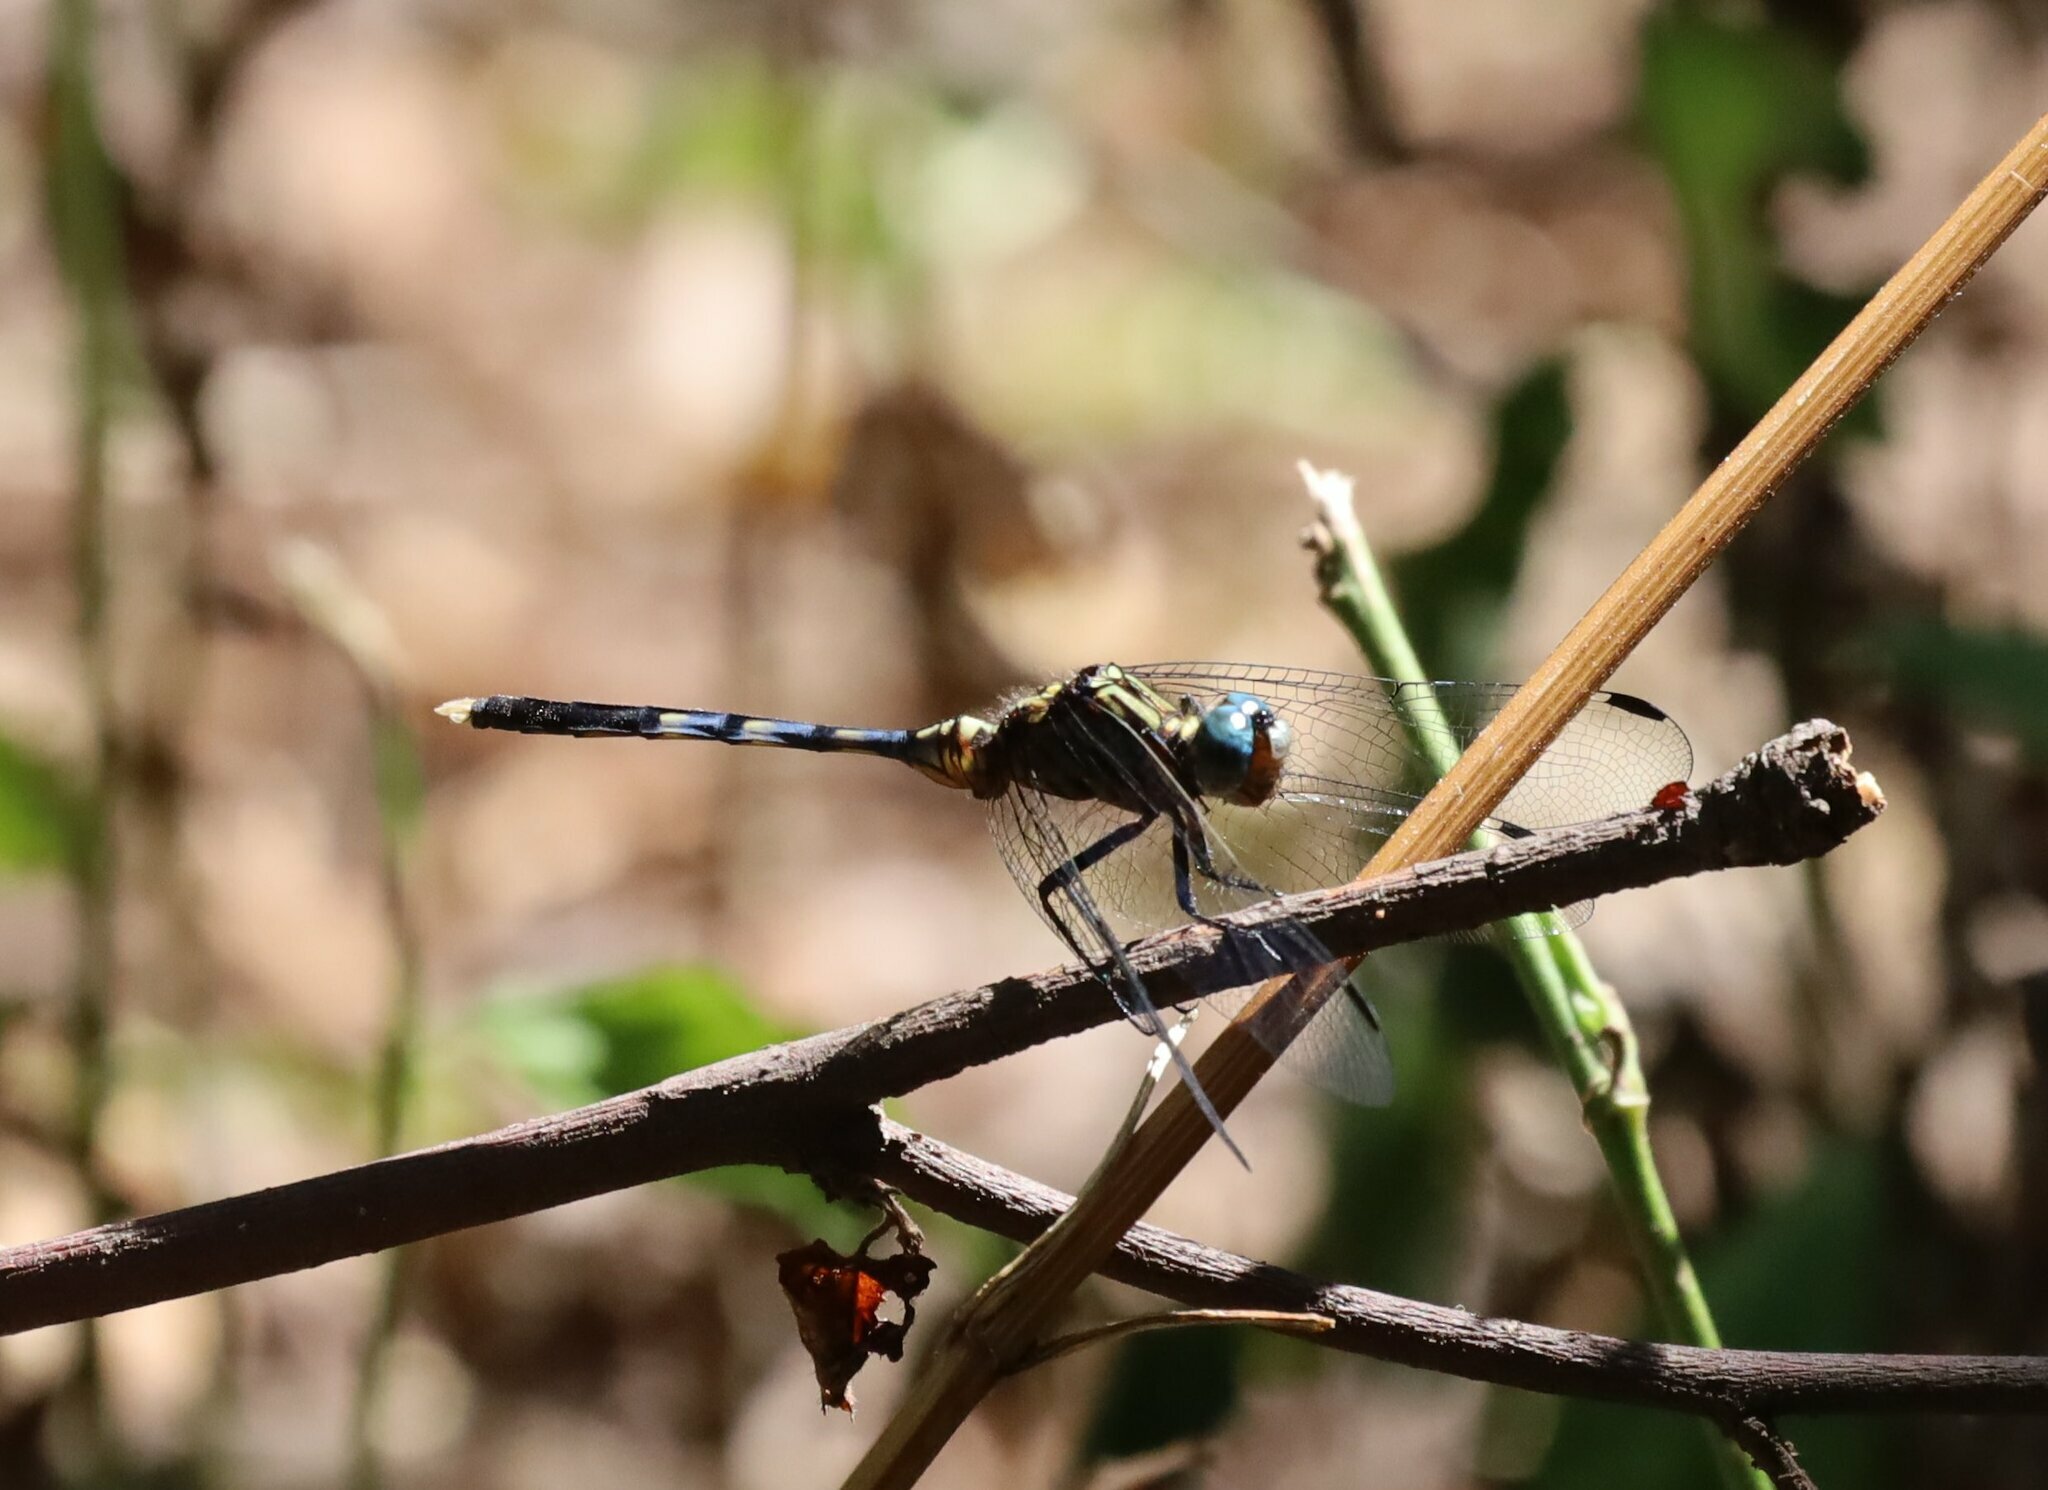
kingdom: Animalia
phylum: Arthropoda
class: Insecta
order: Odonata
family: Libellulidae
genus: Orthetrum
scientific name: Orthetrum julia
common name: Julia skimmer
